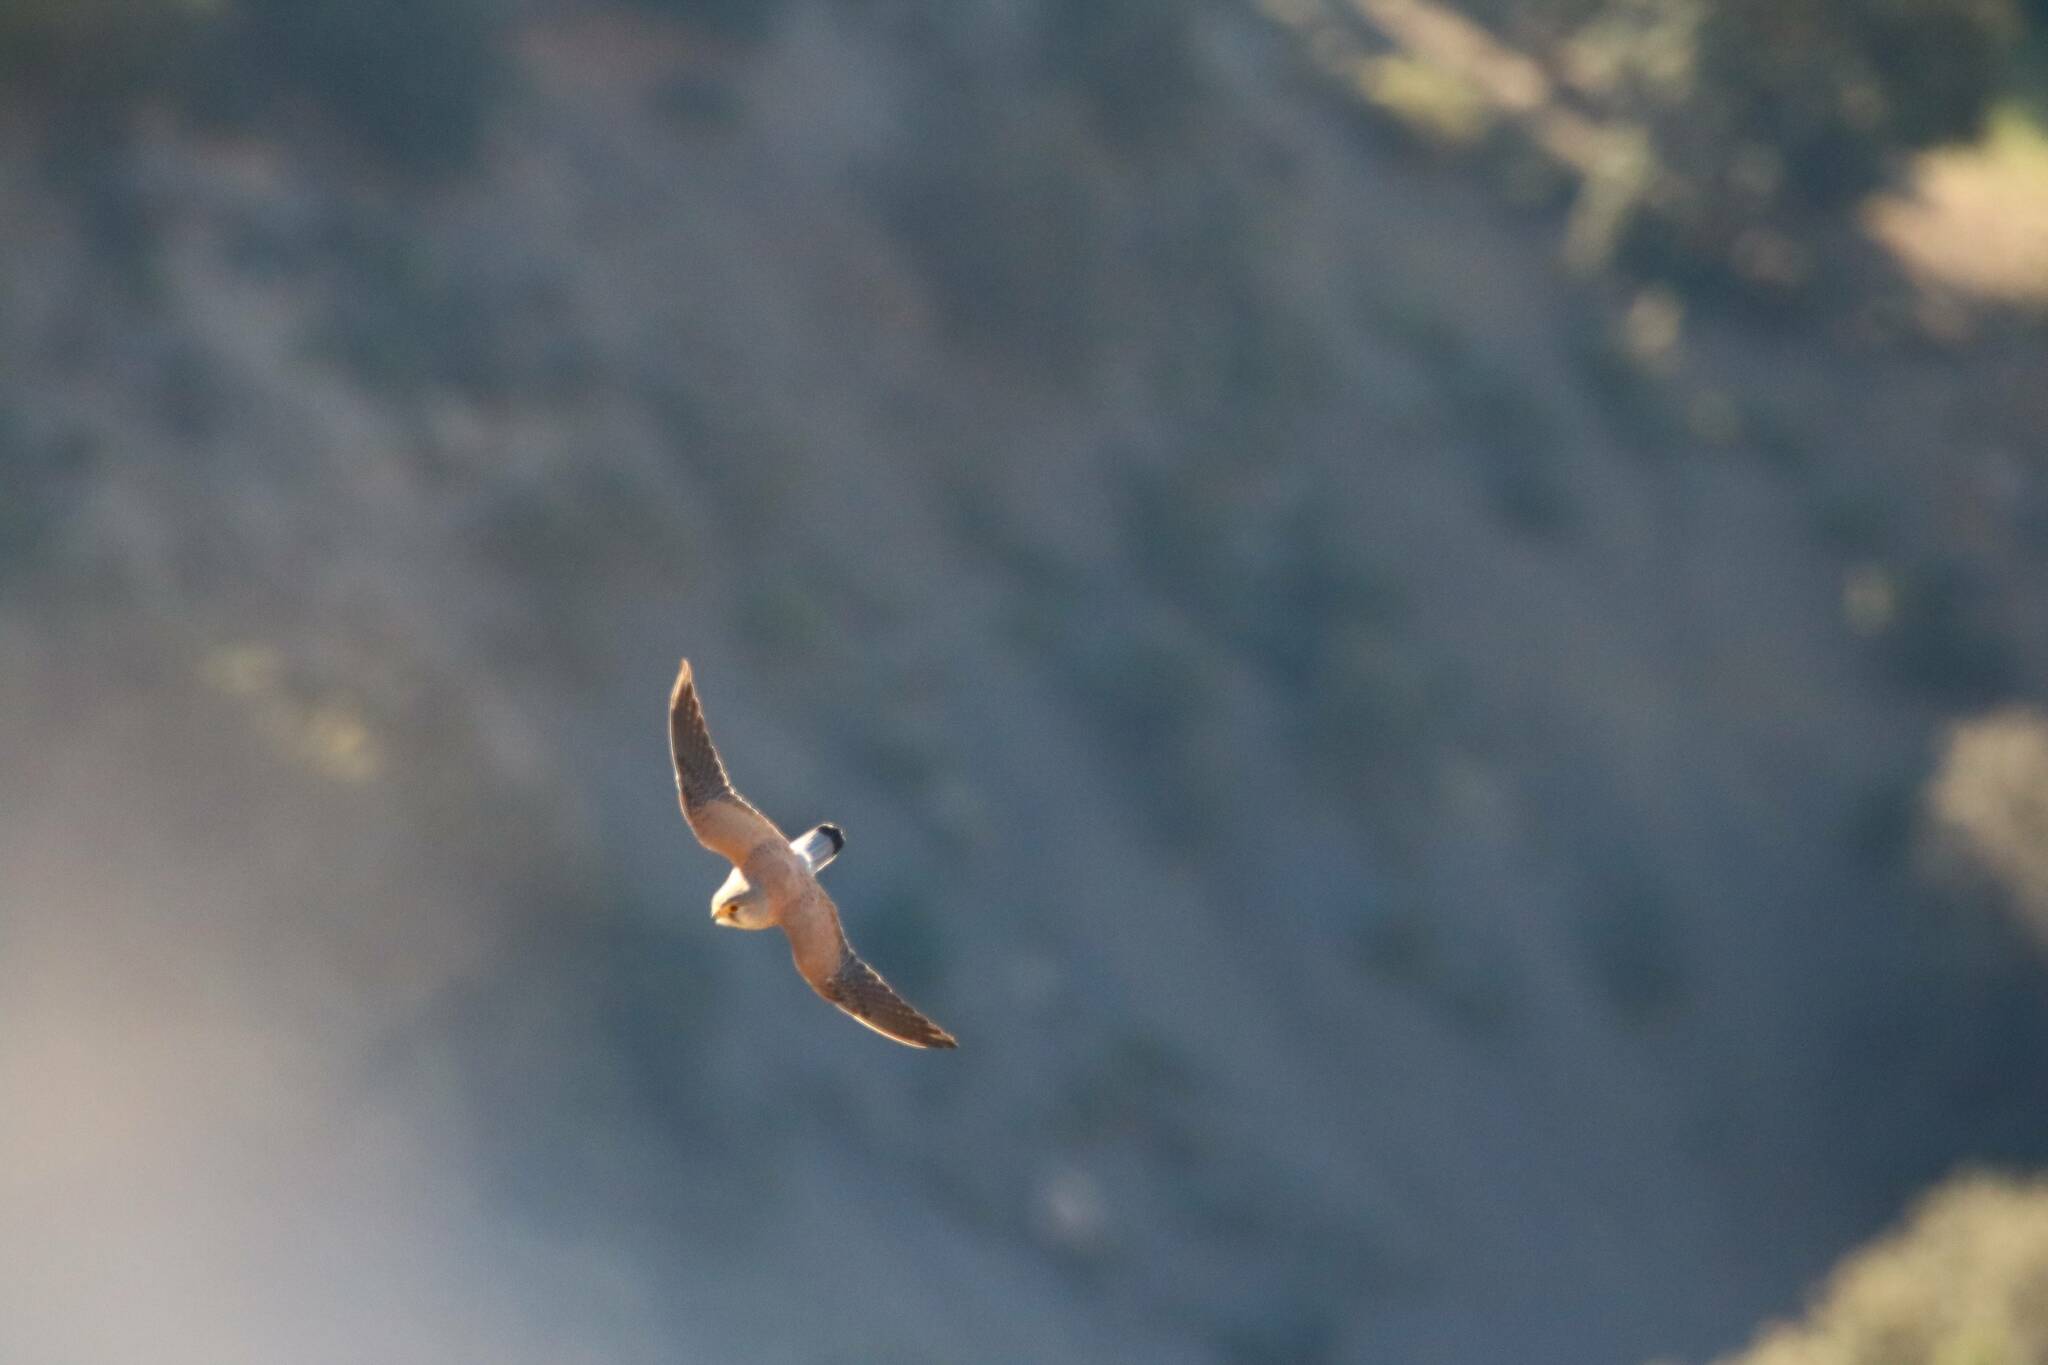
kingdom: Animalia
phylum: Chordata
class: Aves
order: Falconiformes
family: Falconidae
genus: Falco
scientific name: Falco tinnunculus
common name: Common kestrel
